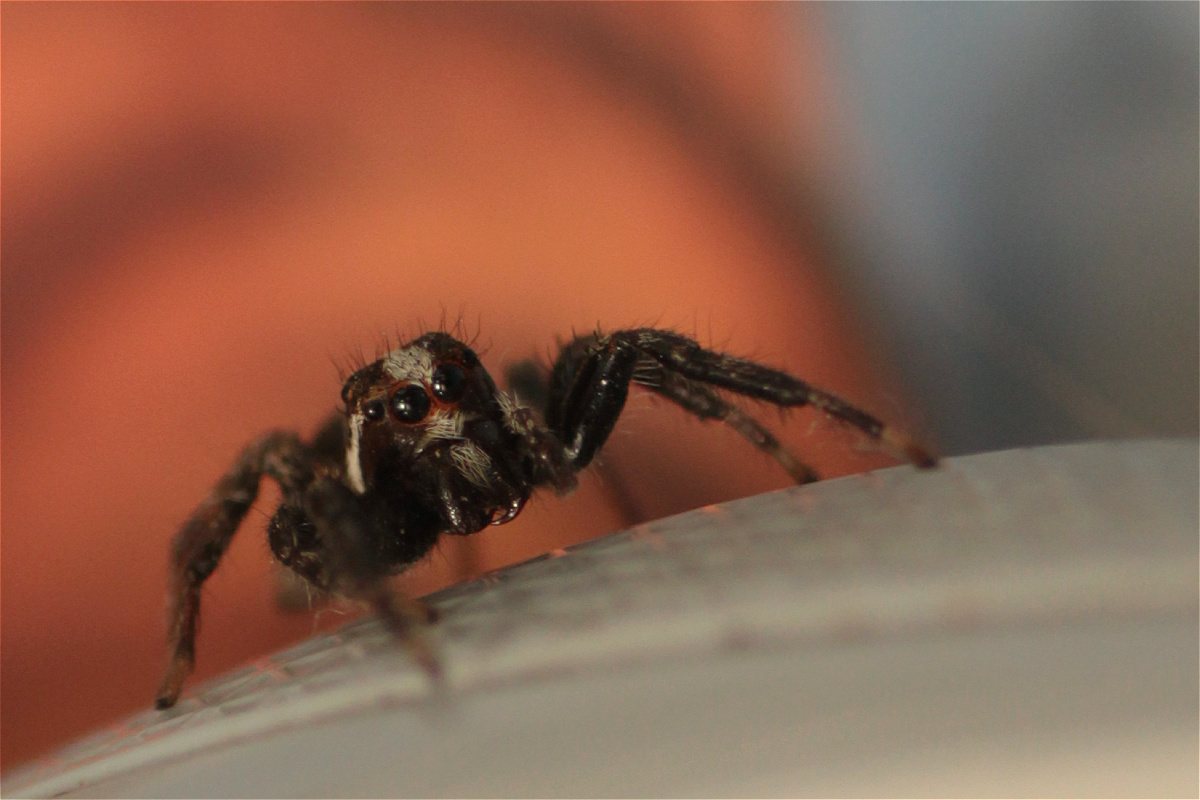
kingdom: Animalia
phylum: Arthropoda
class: Arachnida
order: Araneae
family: Salticidae
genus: Frigga
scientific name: Frigga crocuta
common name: Jumping spiders
